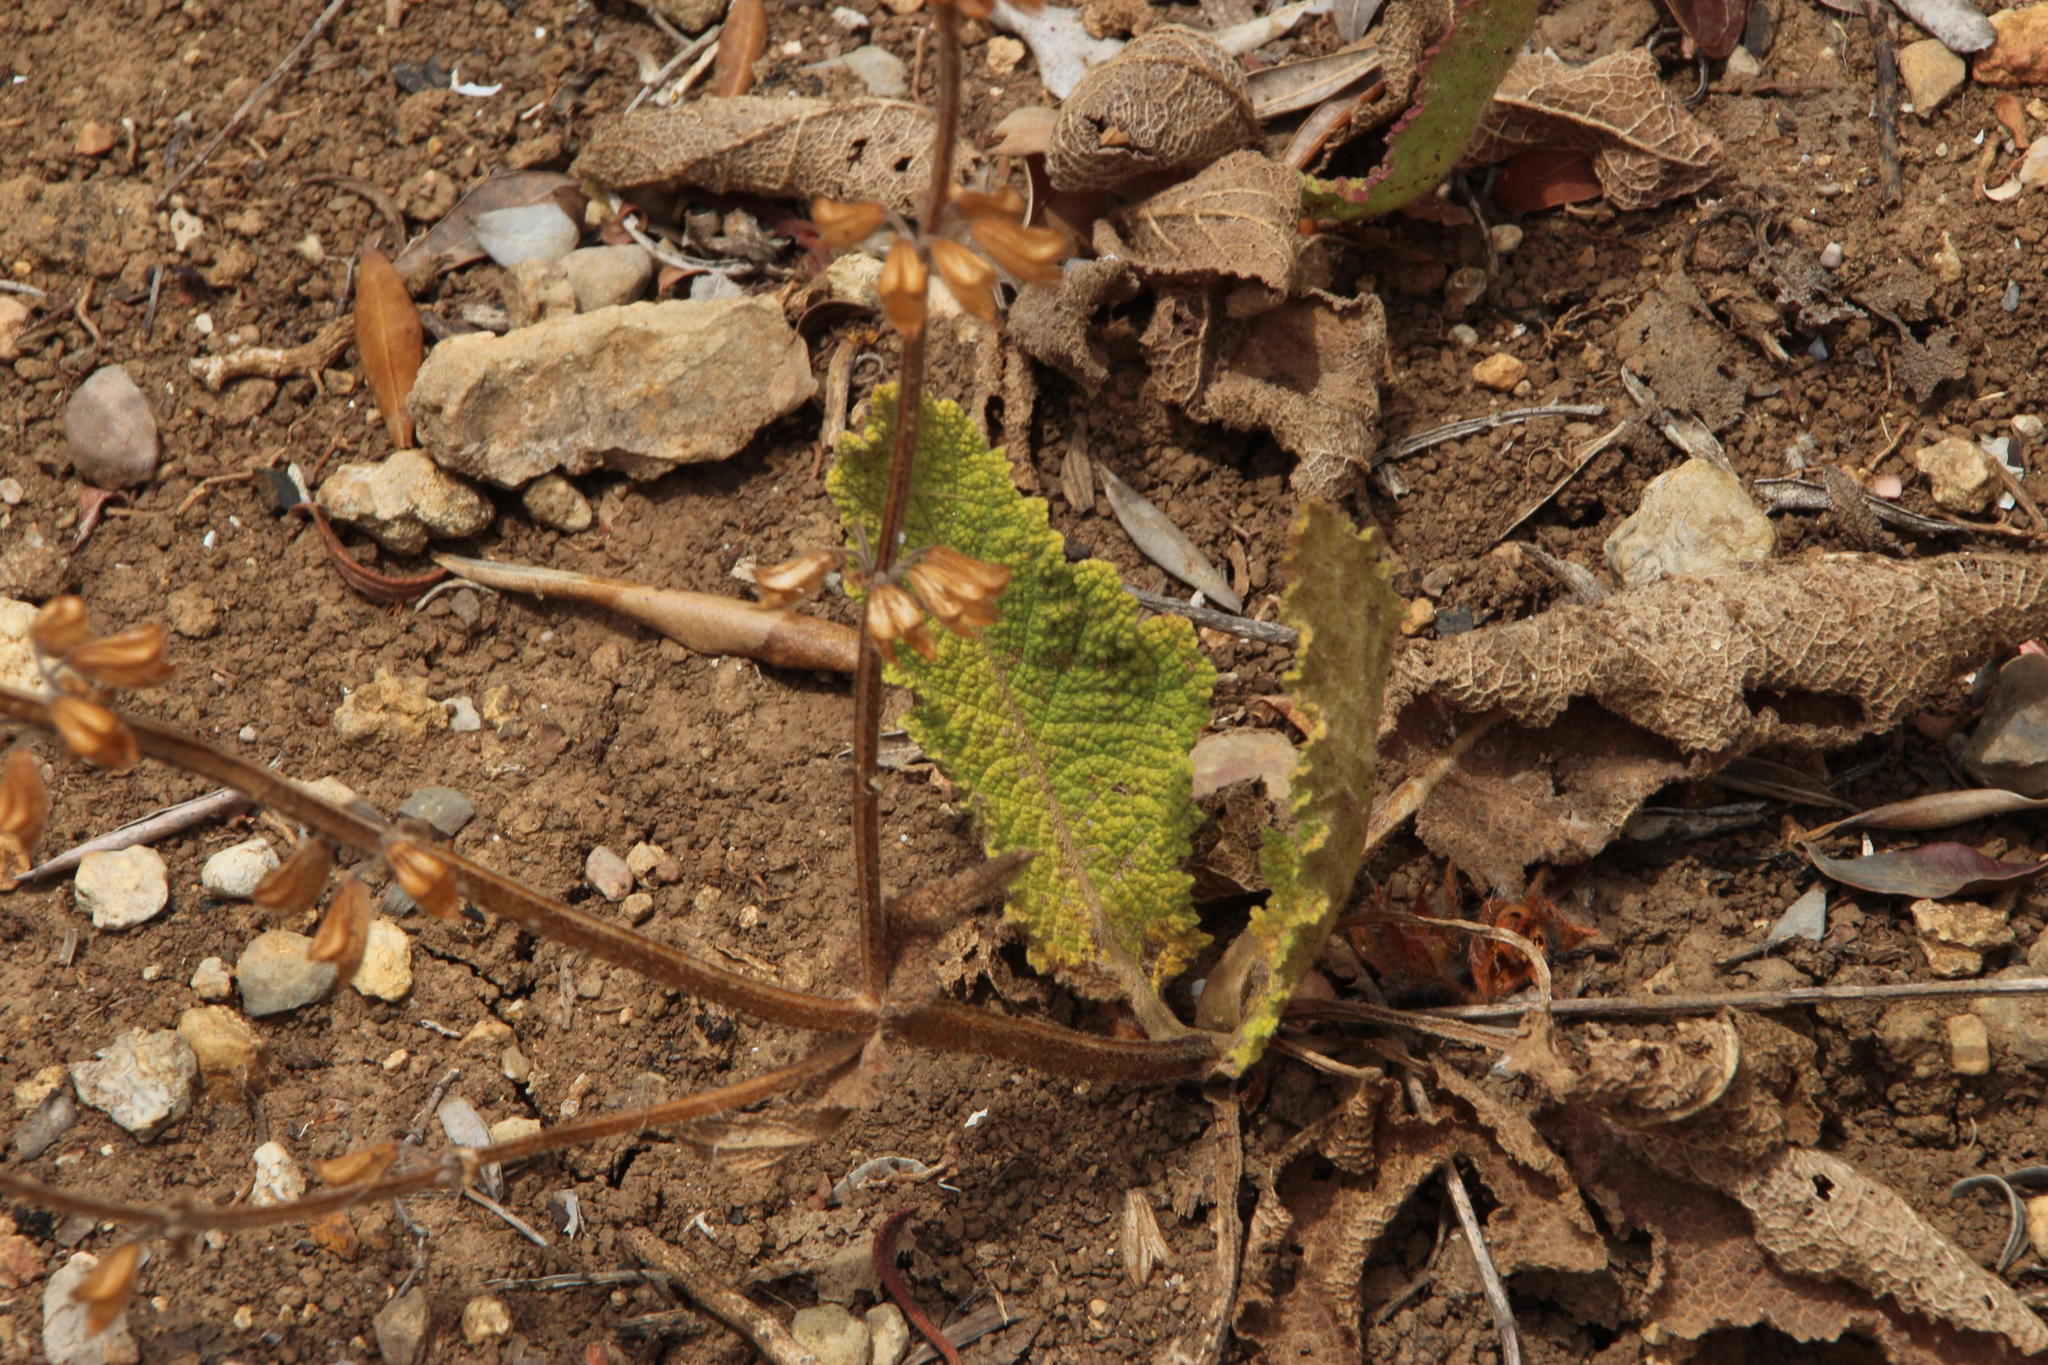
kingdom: Plantae
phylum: Tracheophyta
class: Magnoliopsida
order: Lamiales
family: Lamiaceae
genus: Salvia
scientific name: Salvia sclareoides
